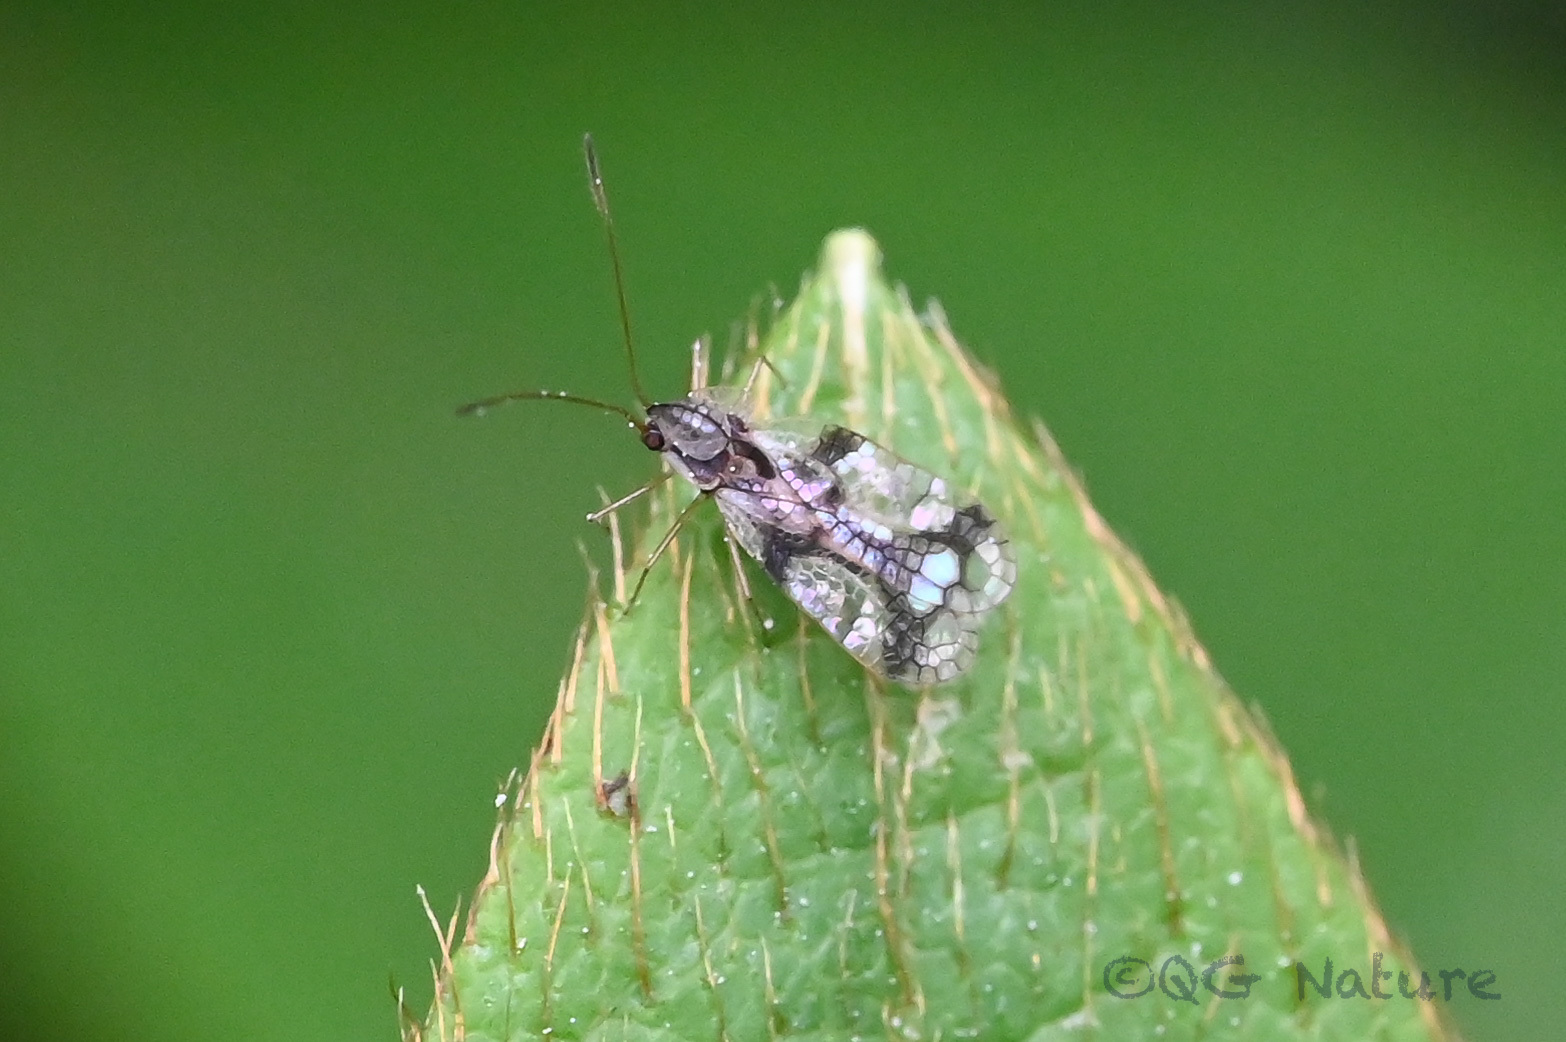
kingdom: Animalia
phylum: Arthropoda
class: Insecta
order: Hemiptera
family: Tingidae
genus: Stephanitis
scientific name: Stephanitis pyrioides
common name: Azalea lace bug
